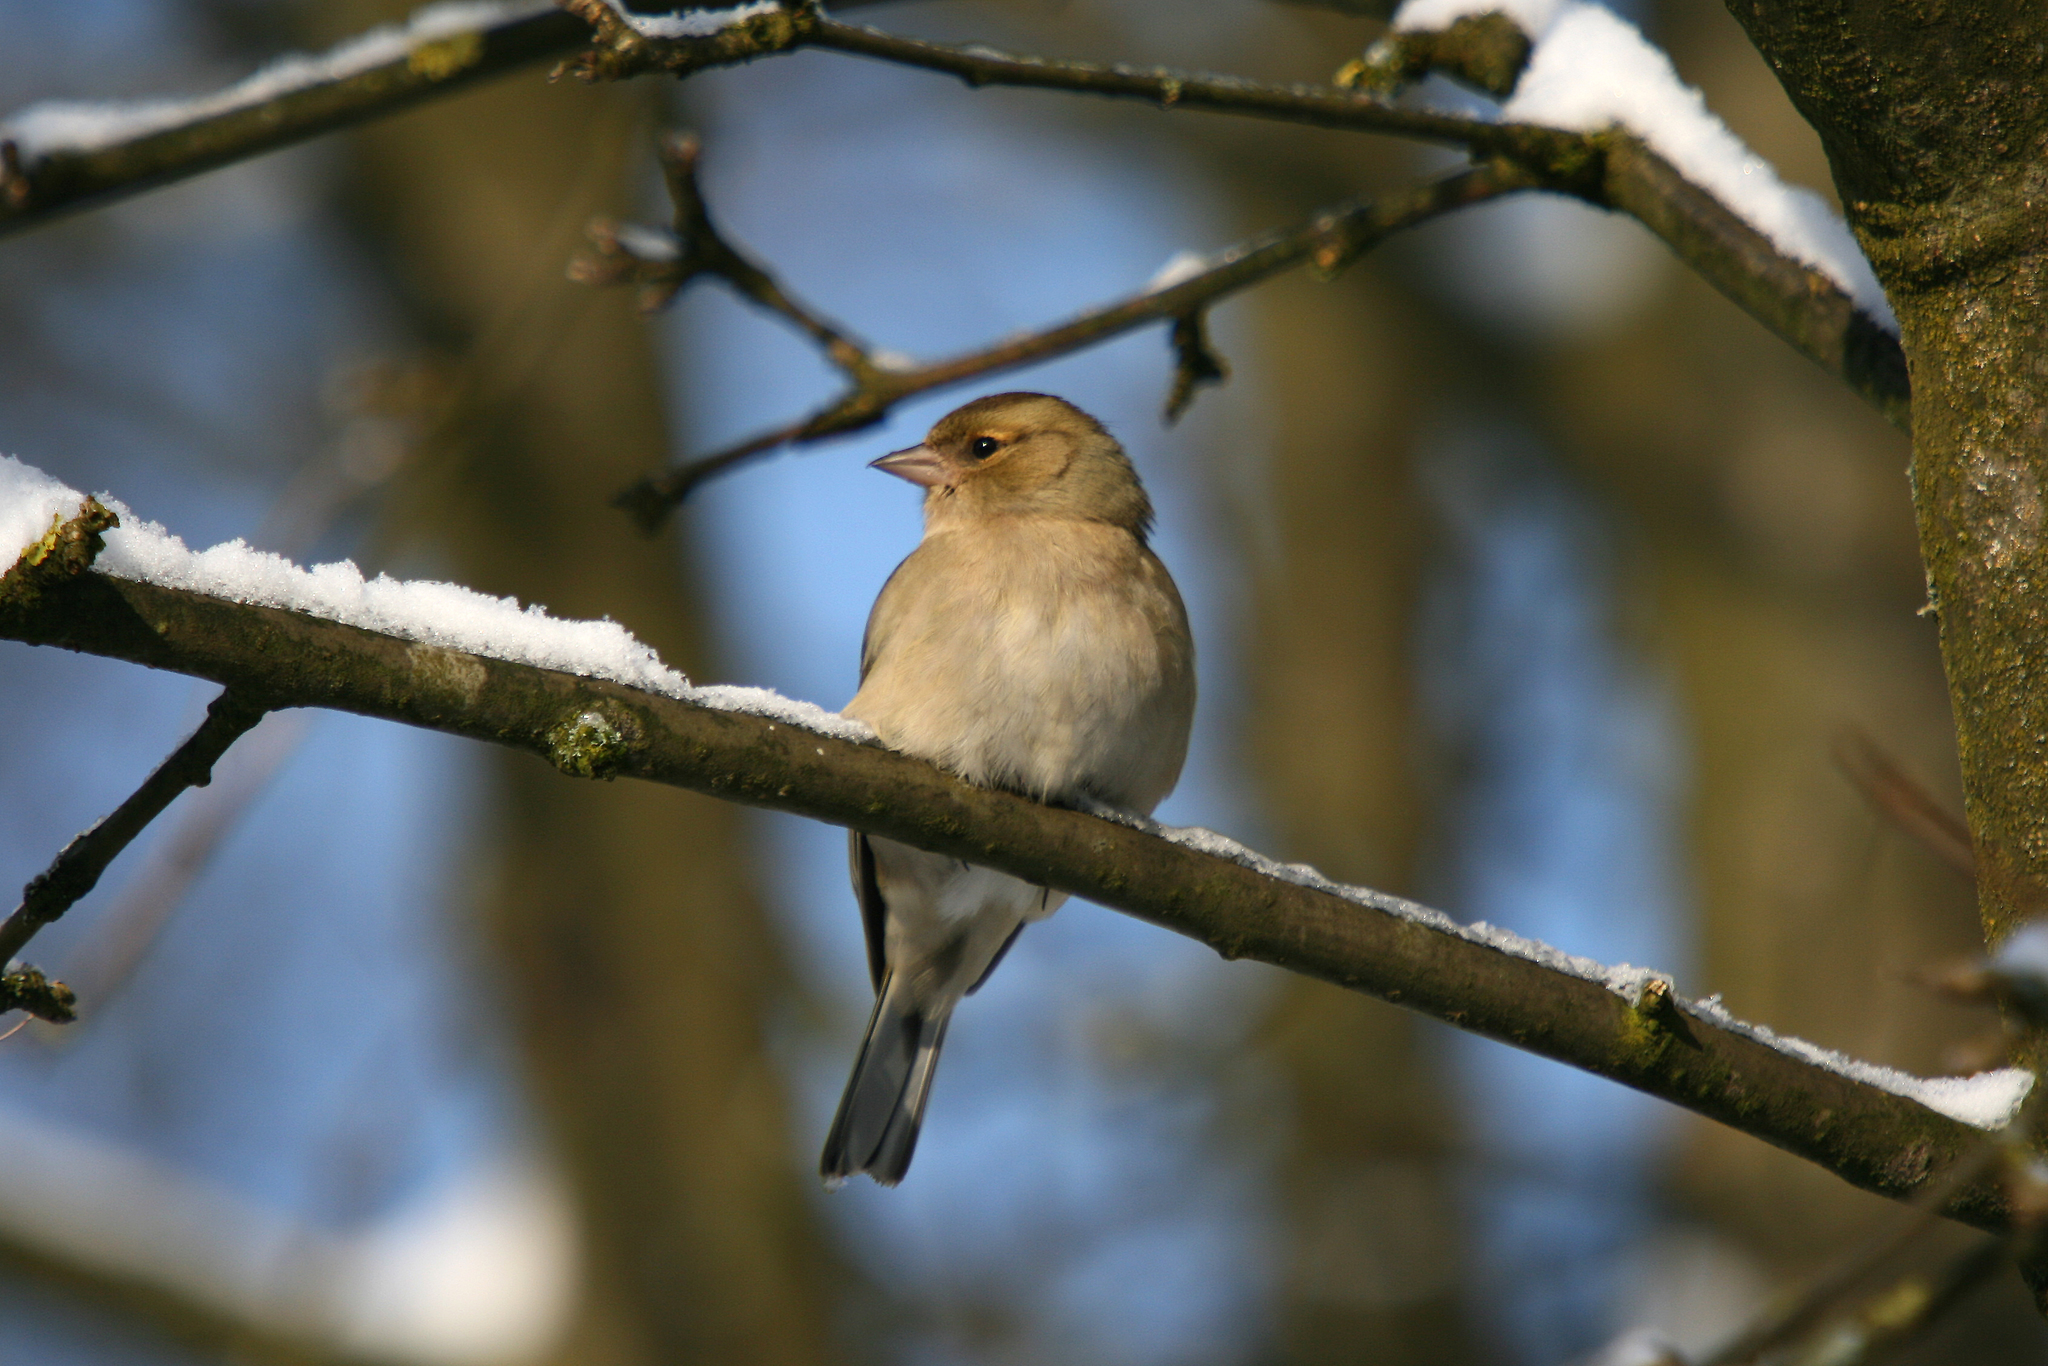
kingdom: Animalia
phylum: Chordata
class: Aves
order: Passeriformes
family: Fringillidae
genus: Fringilla
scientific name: Fringilla coelebs
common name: Common chaffinch
